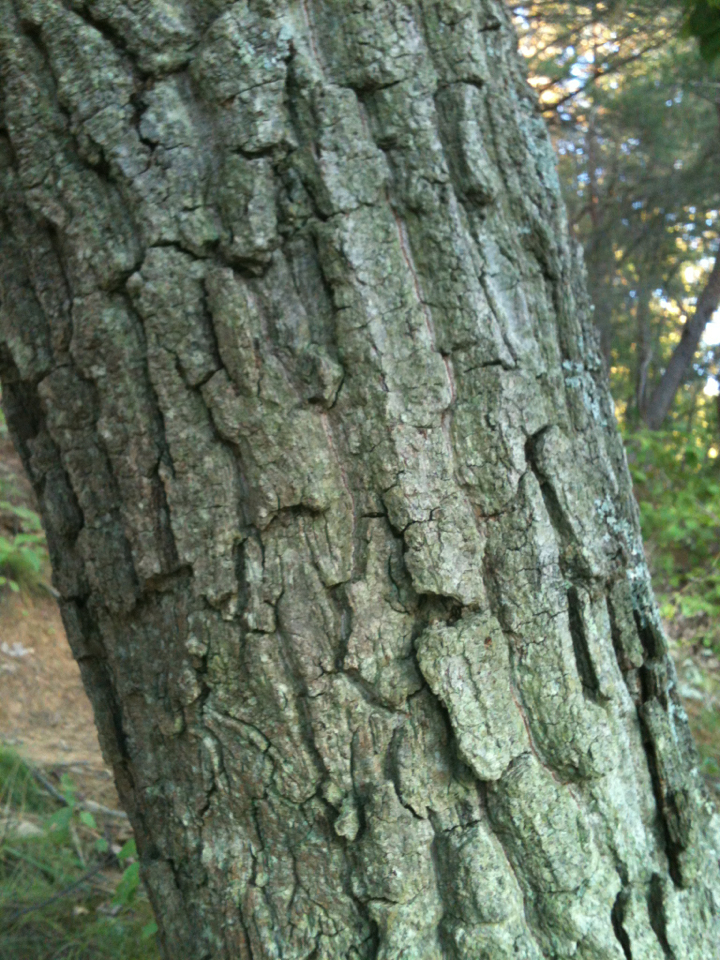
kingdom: Plantae
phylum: Tracheophyta
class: Magnoliopsida
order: Fagales
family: Fagaceae
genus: Quercus
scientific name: Quercus montana
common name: Chestnut oak
